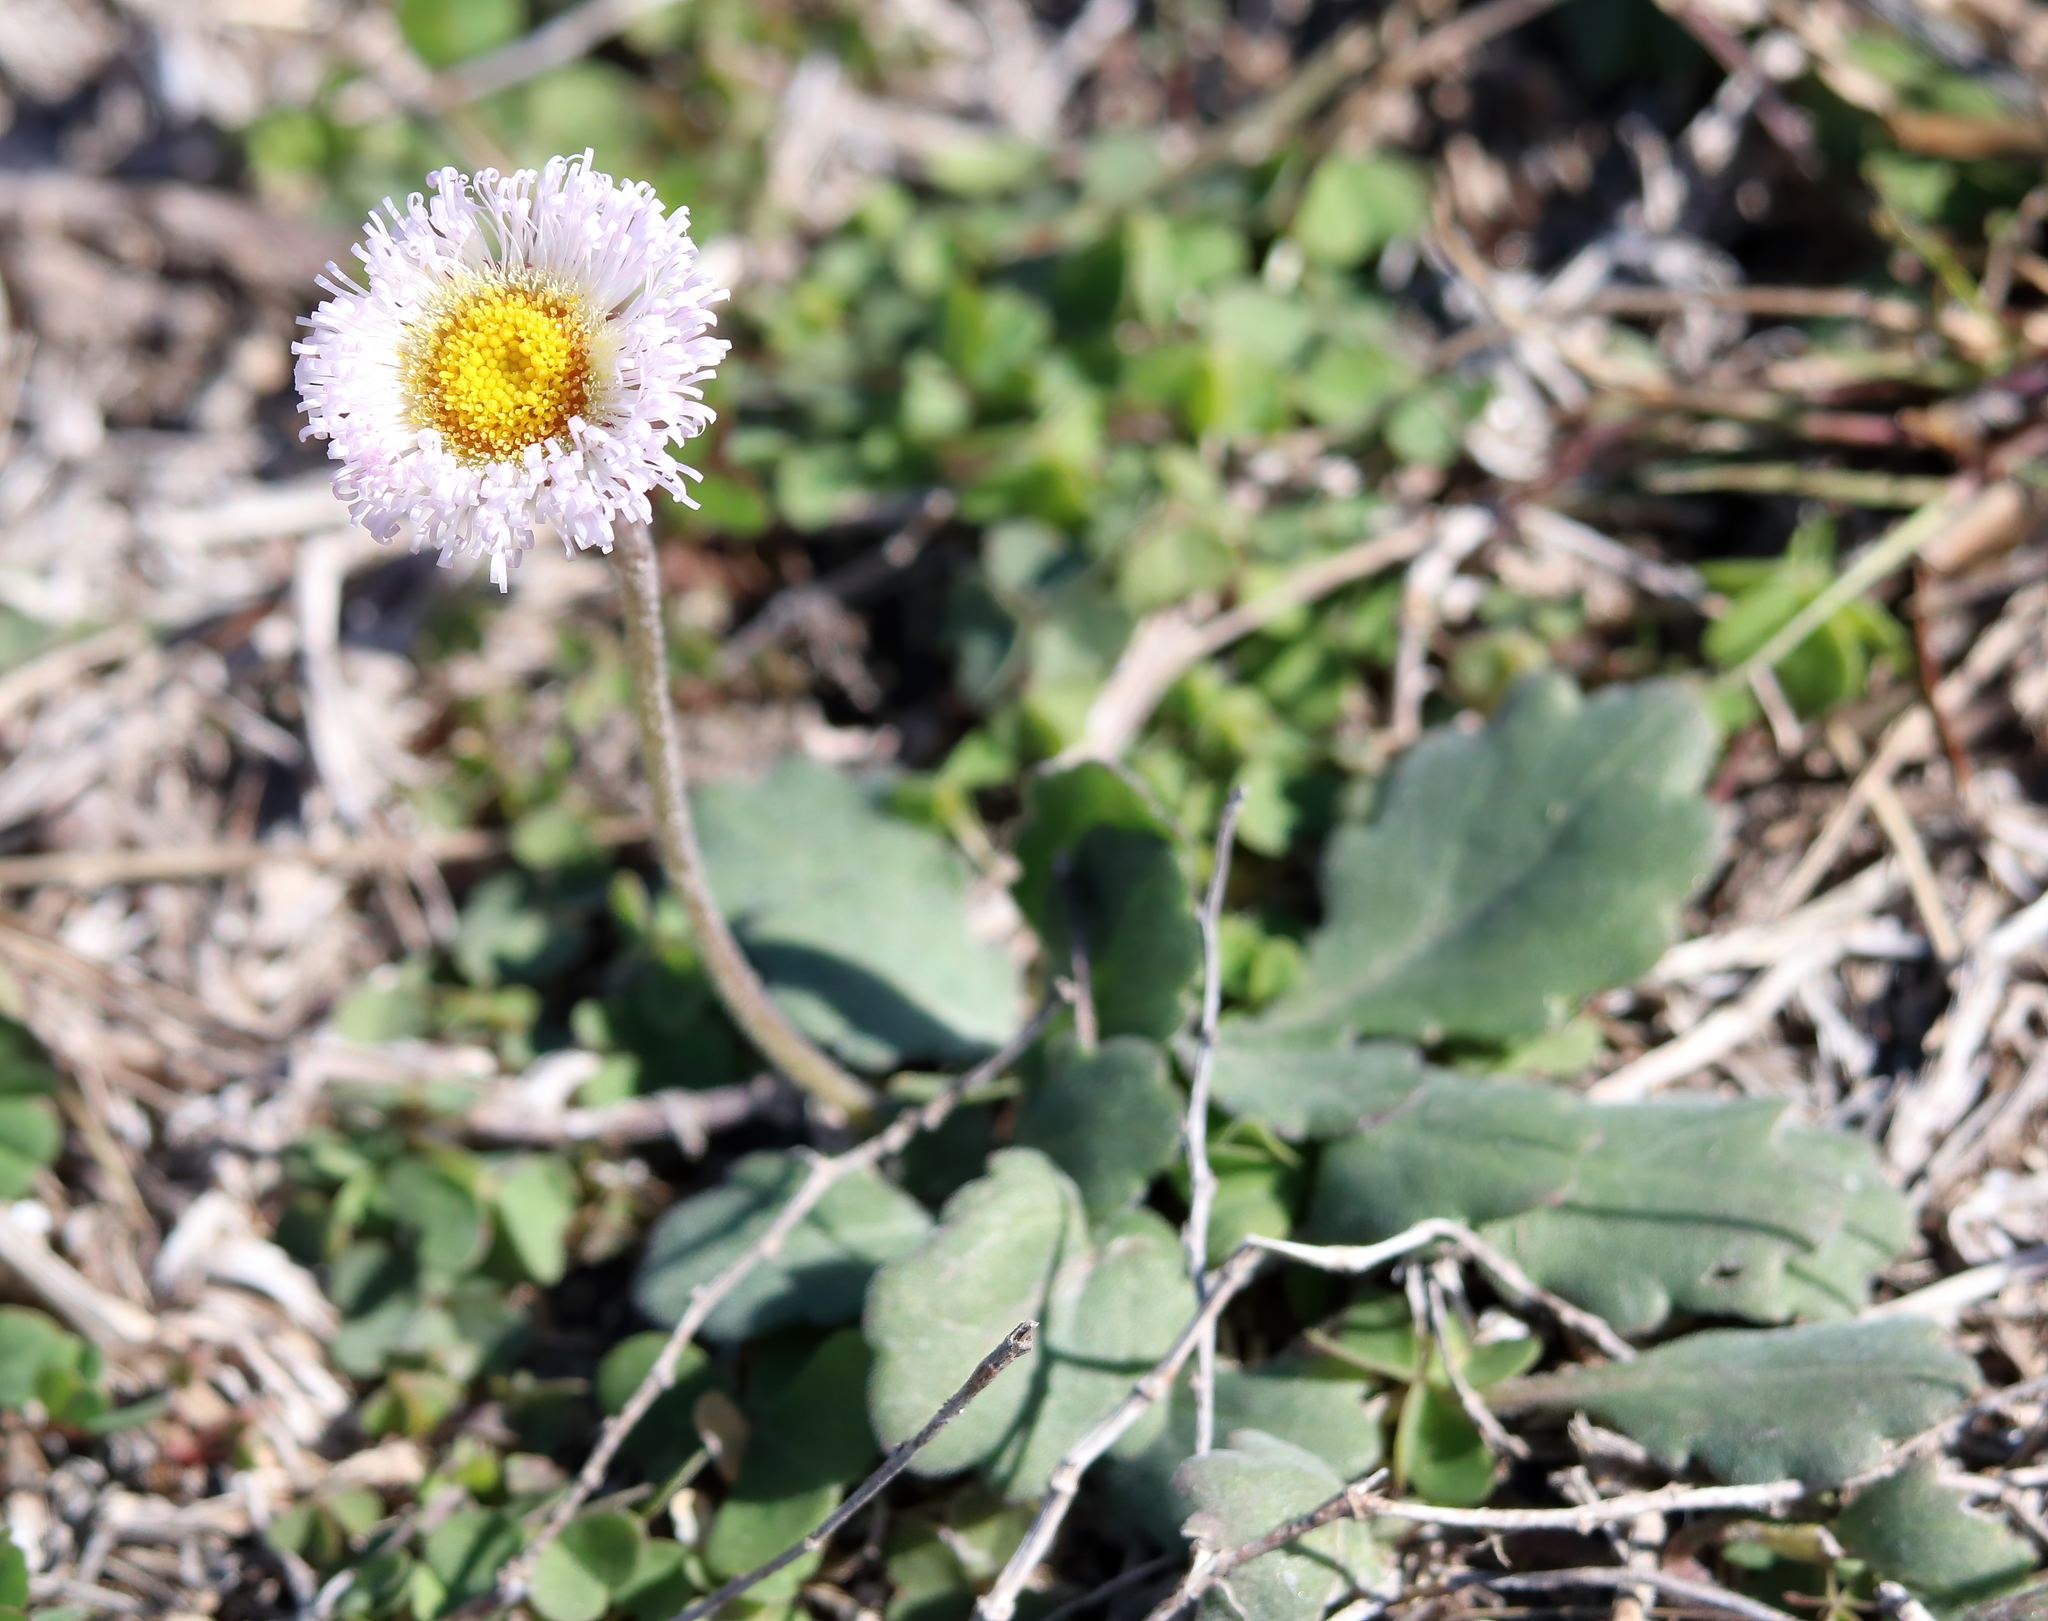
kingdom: Plantae
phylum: Tracheophyta
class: Magnoliopsida
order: Asterales
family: Asteraceae
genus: Erigeron
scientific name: Erigeron procumbens
